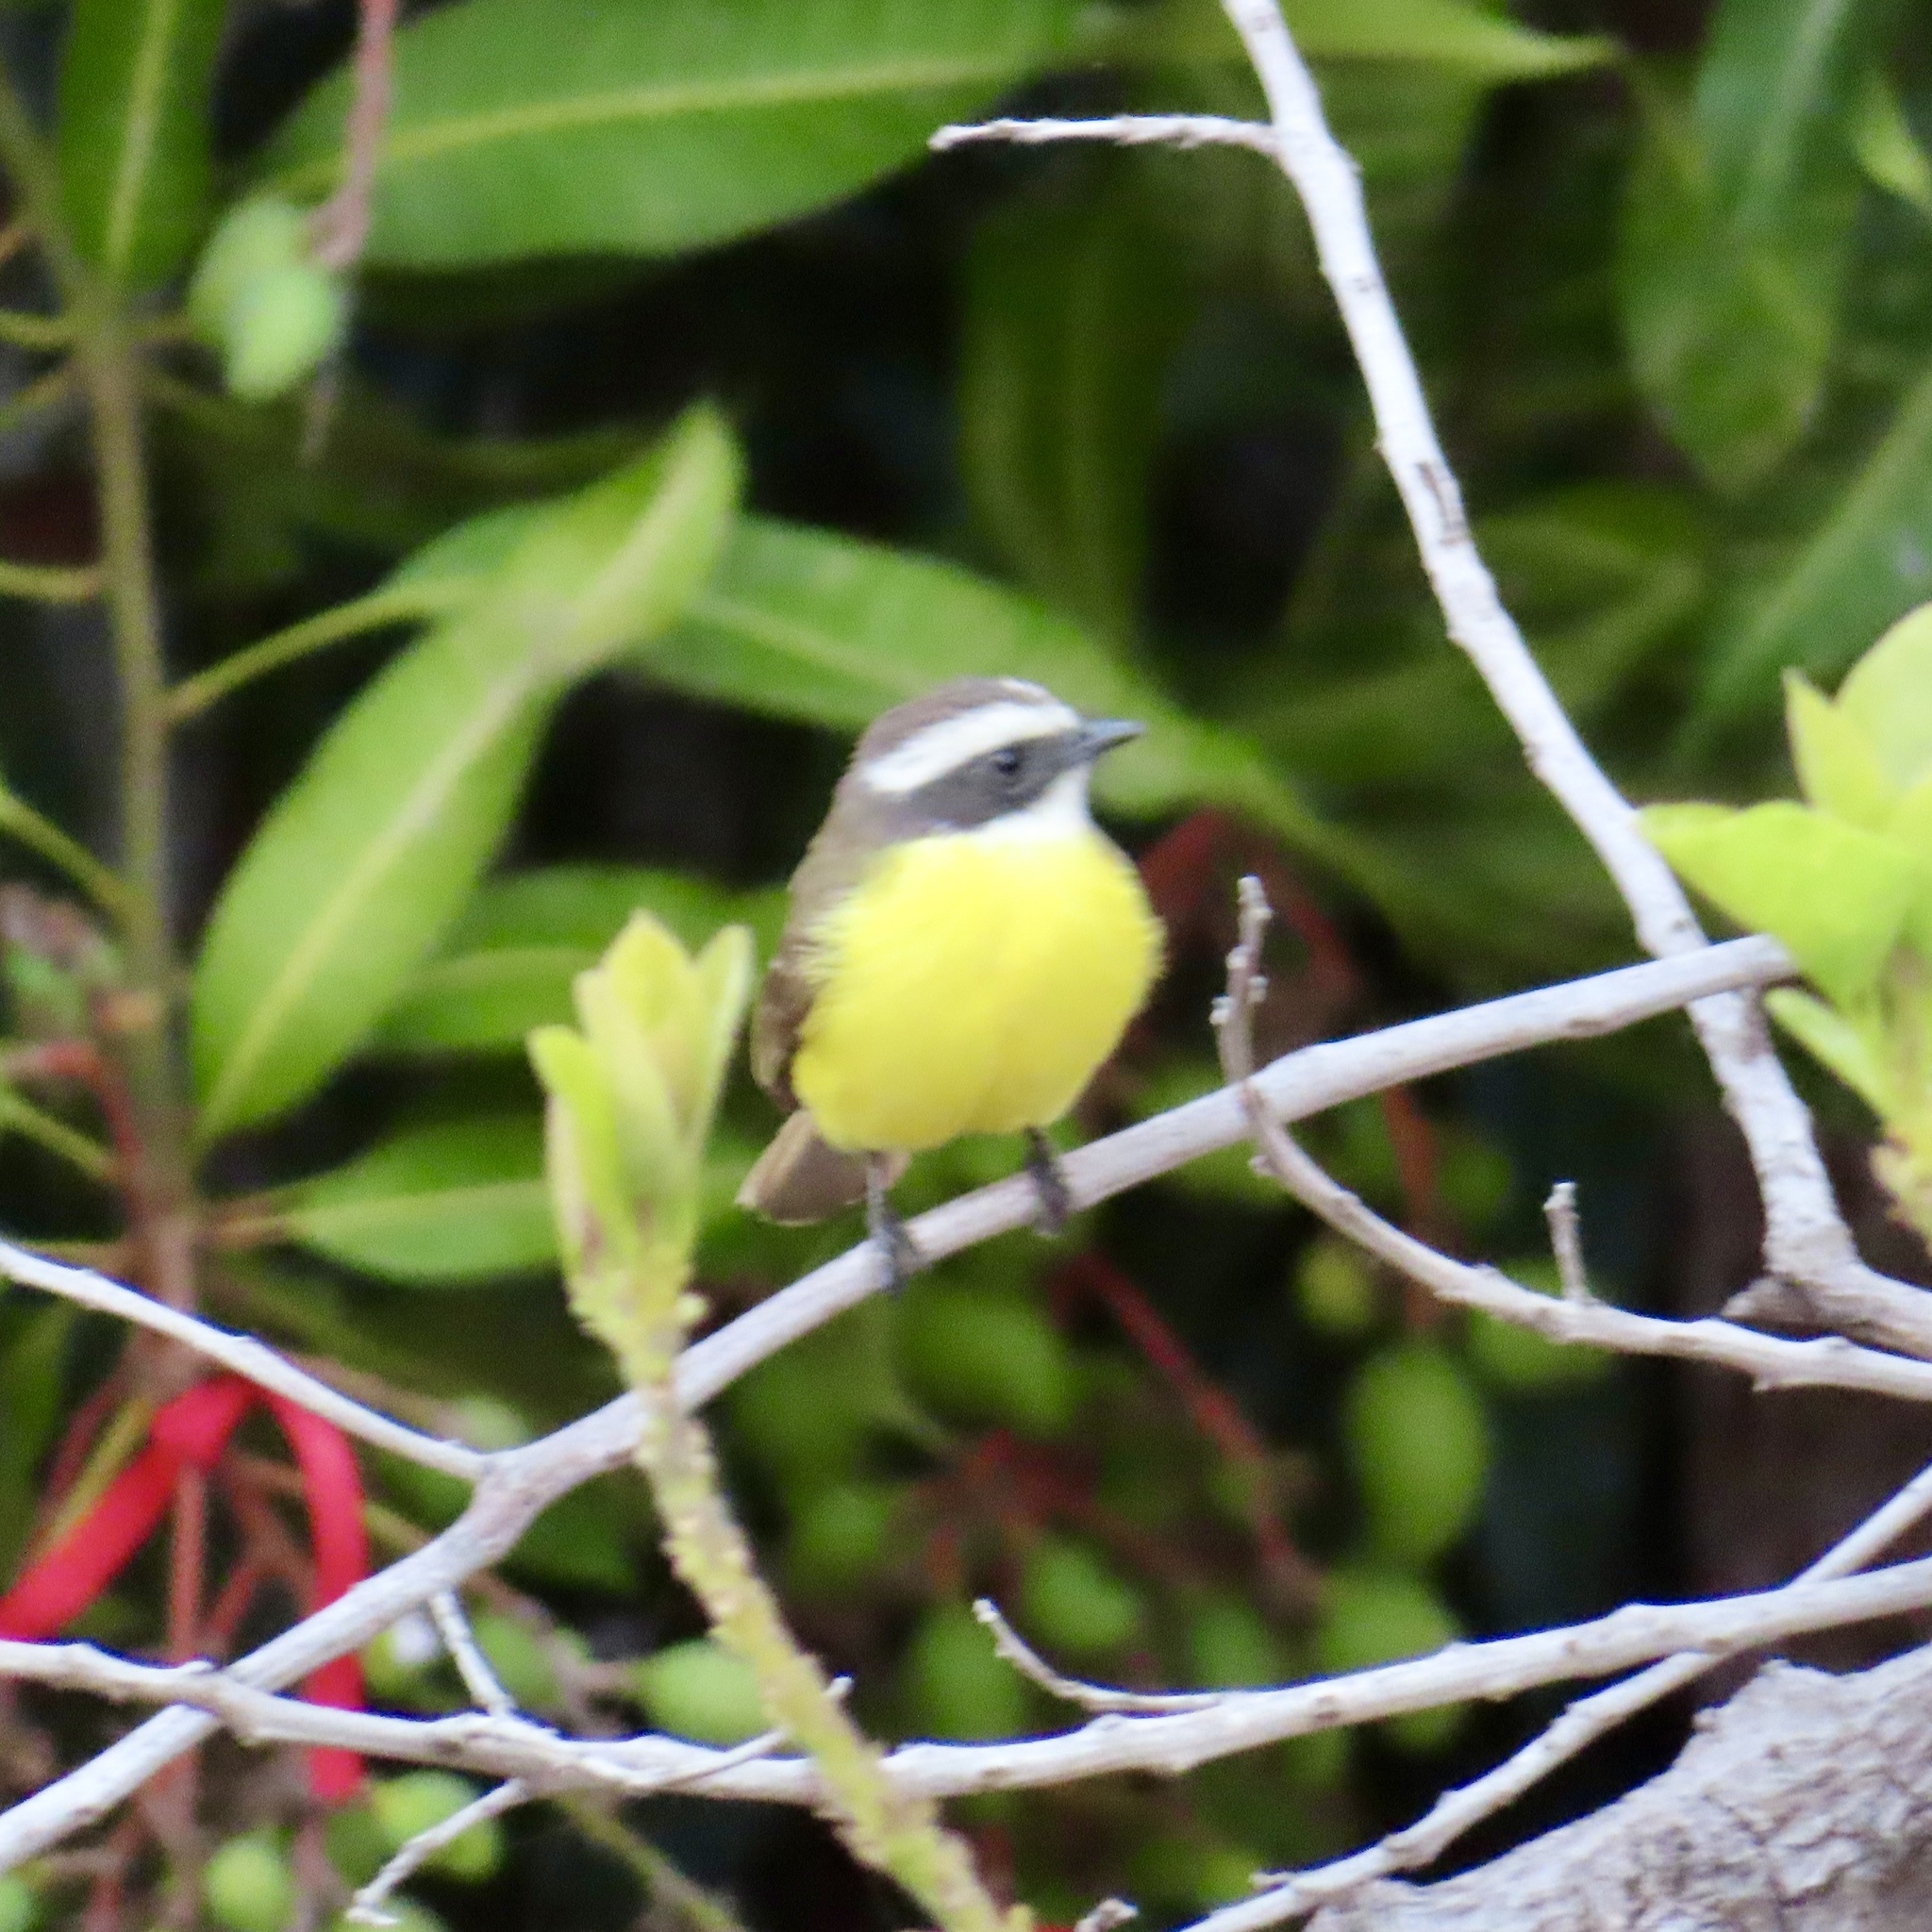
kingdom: Animalia
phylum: Chordata
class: Aves
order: Passeriformes
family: Tyrannidae
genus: Myiozetetes
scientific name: Myiozetetes similis
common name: Social flycatcher
